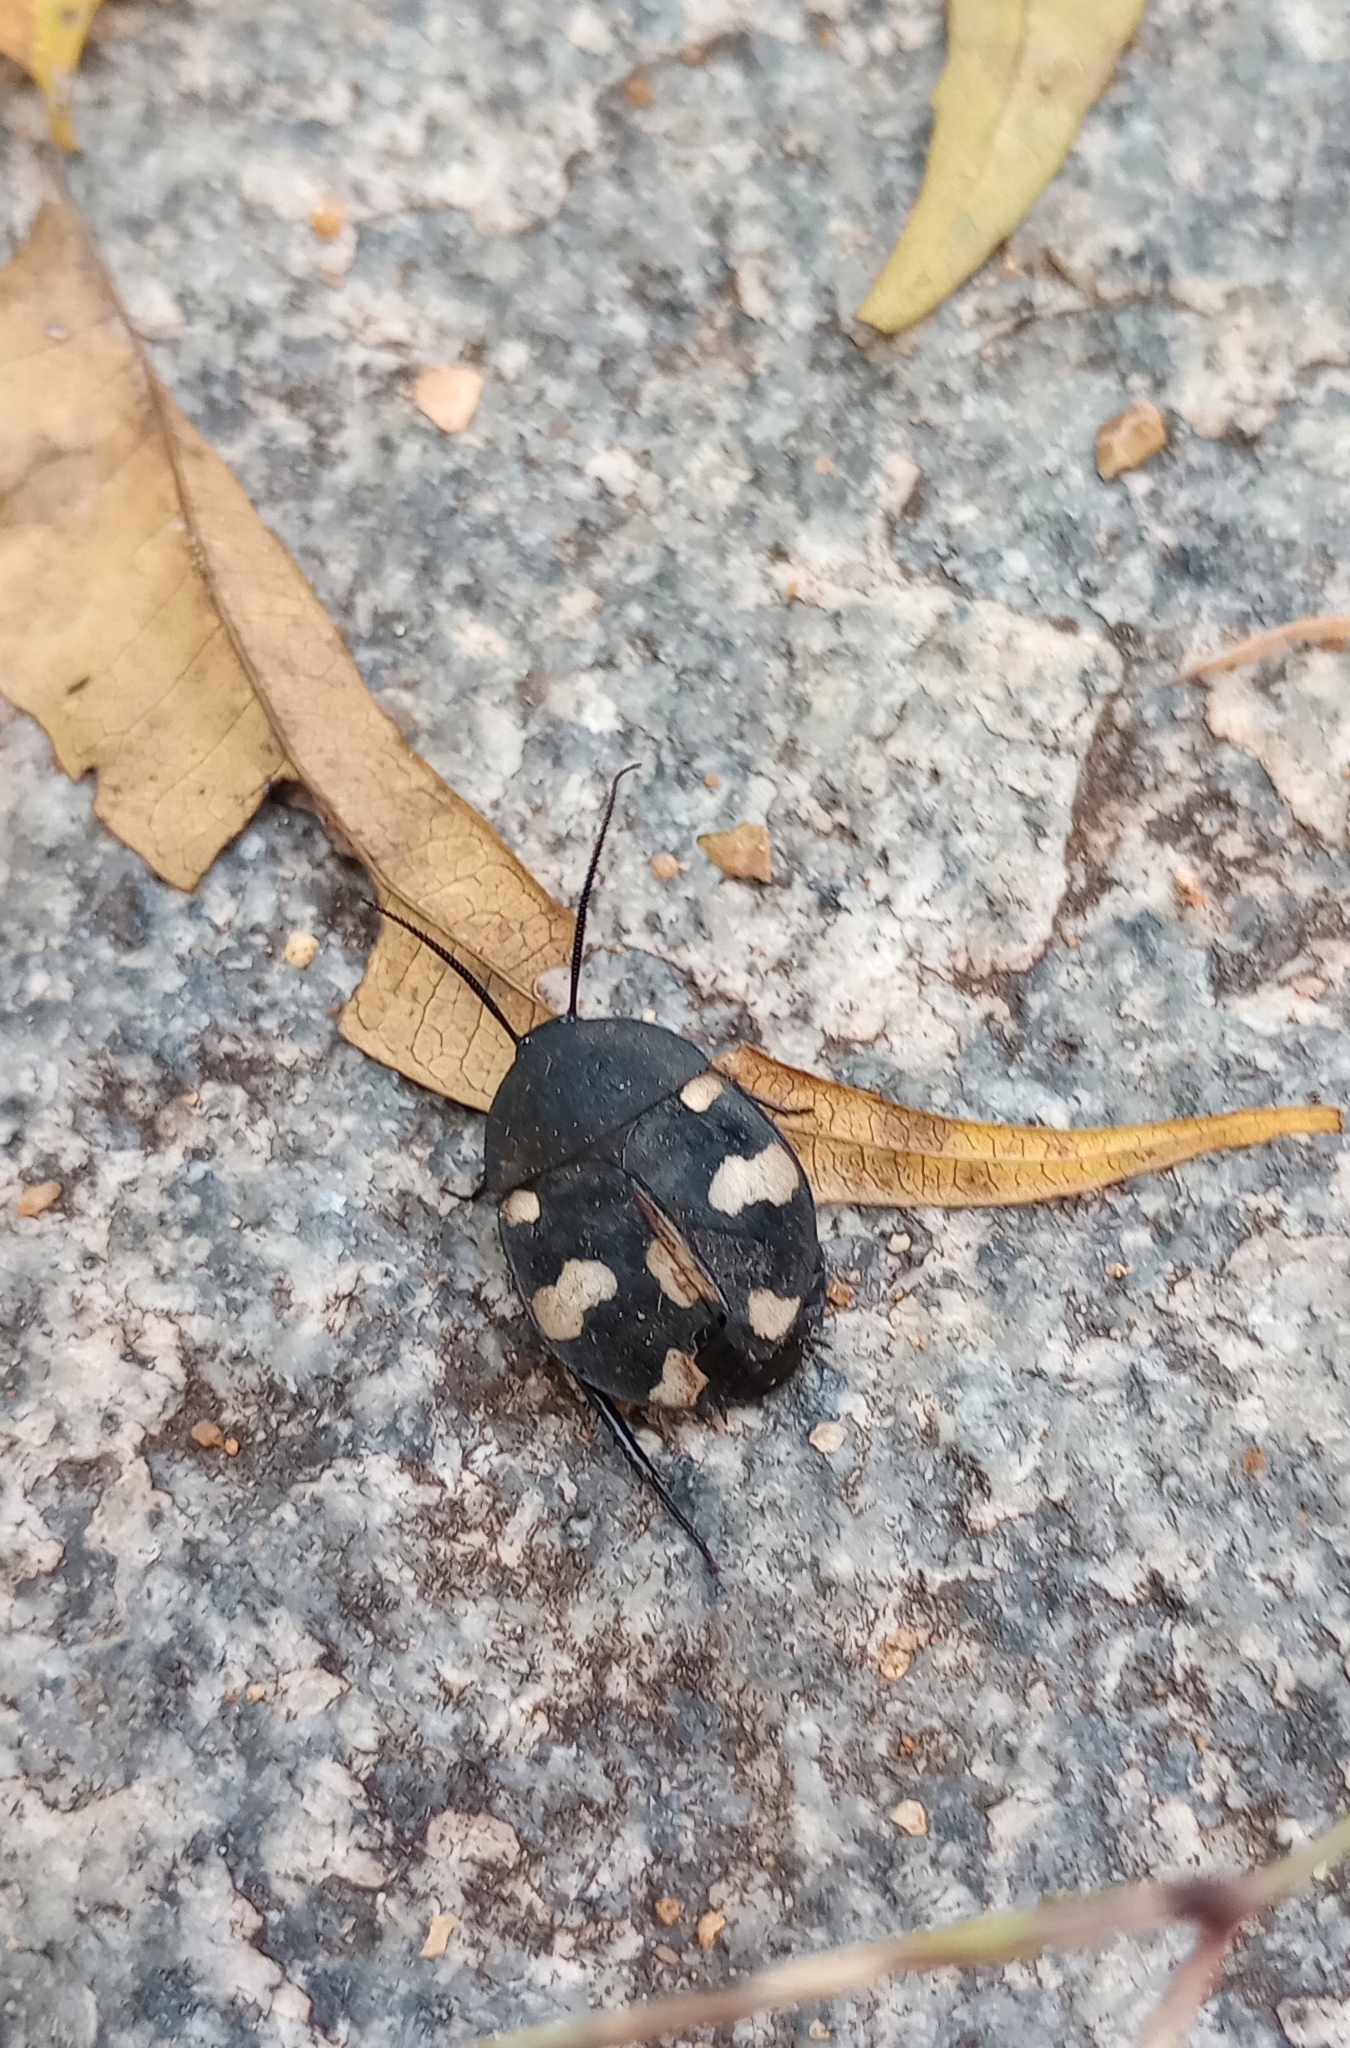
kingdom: Animalia
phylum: Arthropoda
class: Insecta
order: Blattodea
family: Corydiidae
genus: Therea
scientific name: Therea petiveriana
